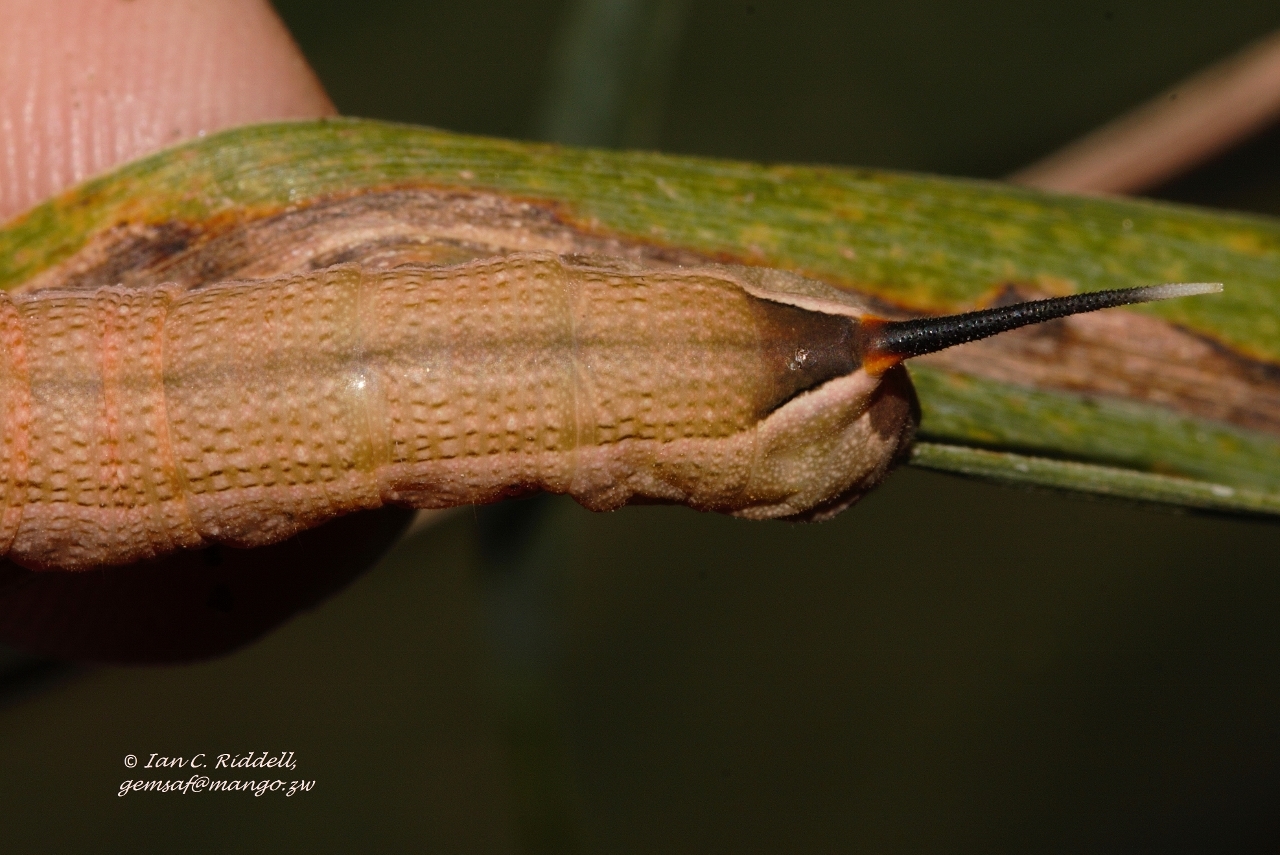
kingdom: Animalia
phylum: Arthropoda
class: Insecta
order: Lepidoptera
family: Sphingidae
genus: Hippotion
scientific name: Hippotion celerio
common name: Silver-striped hawk-moth
